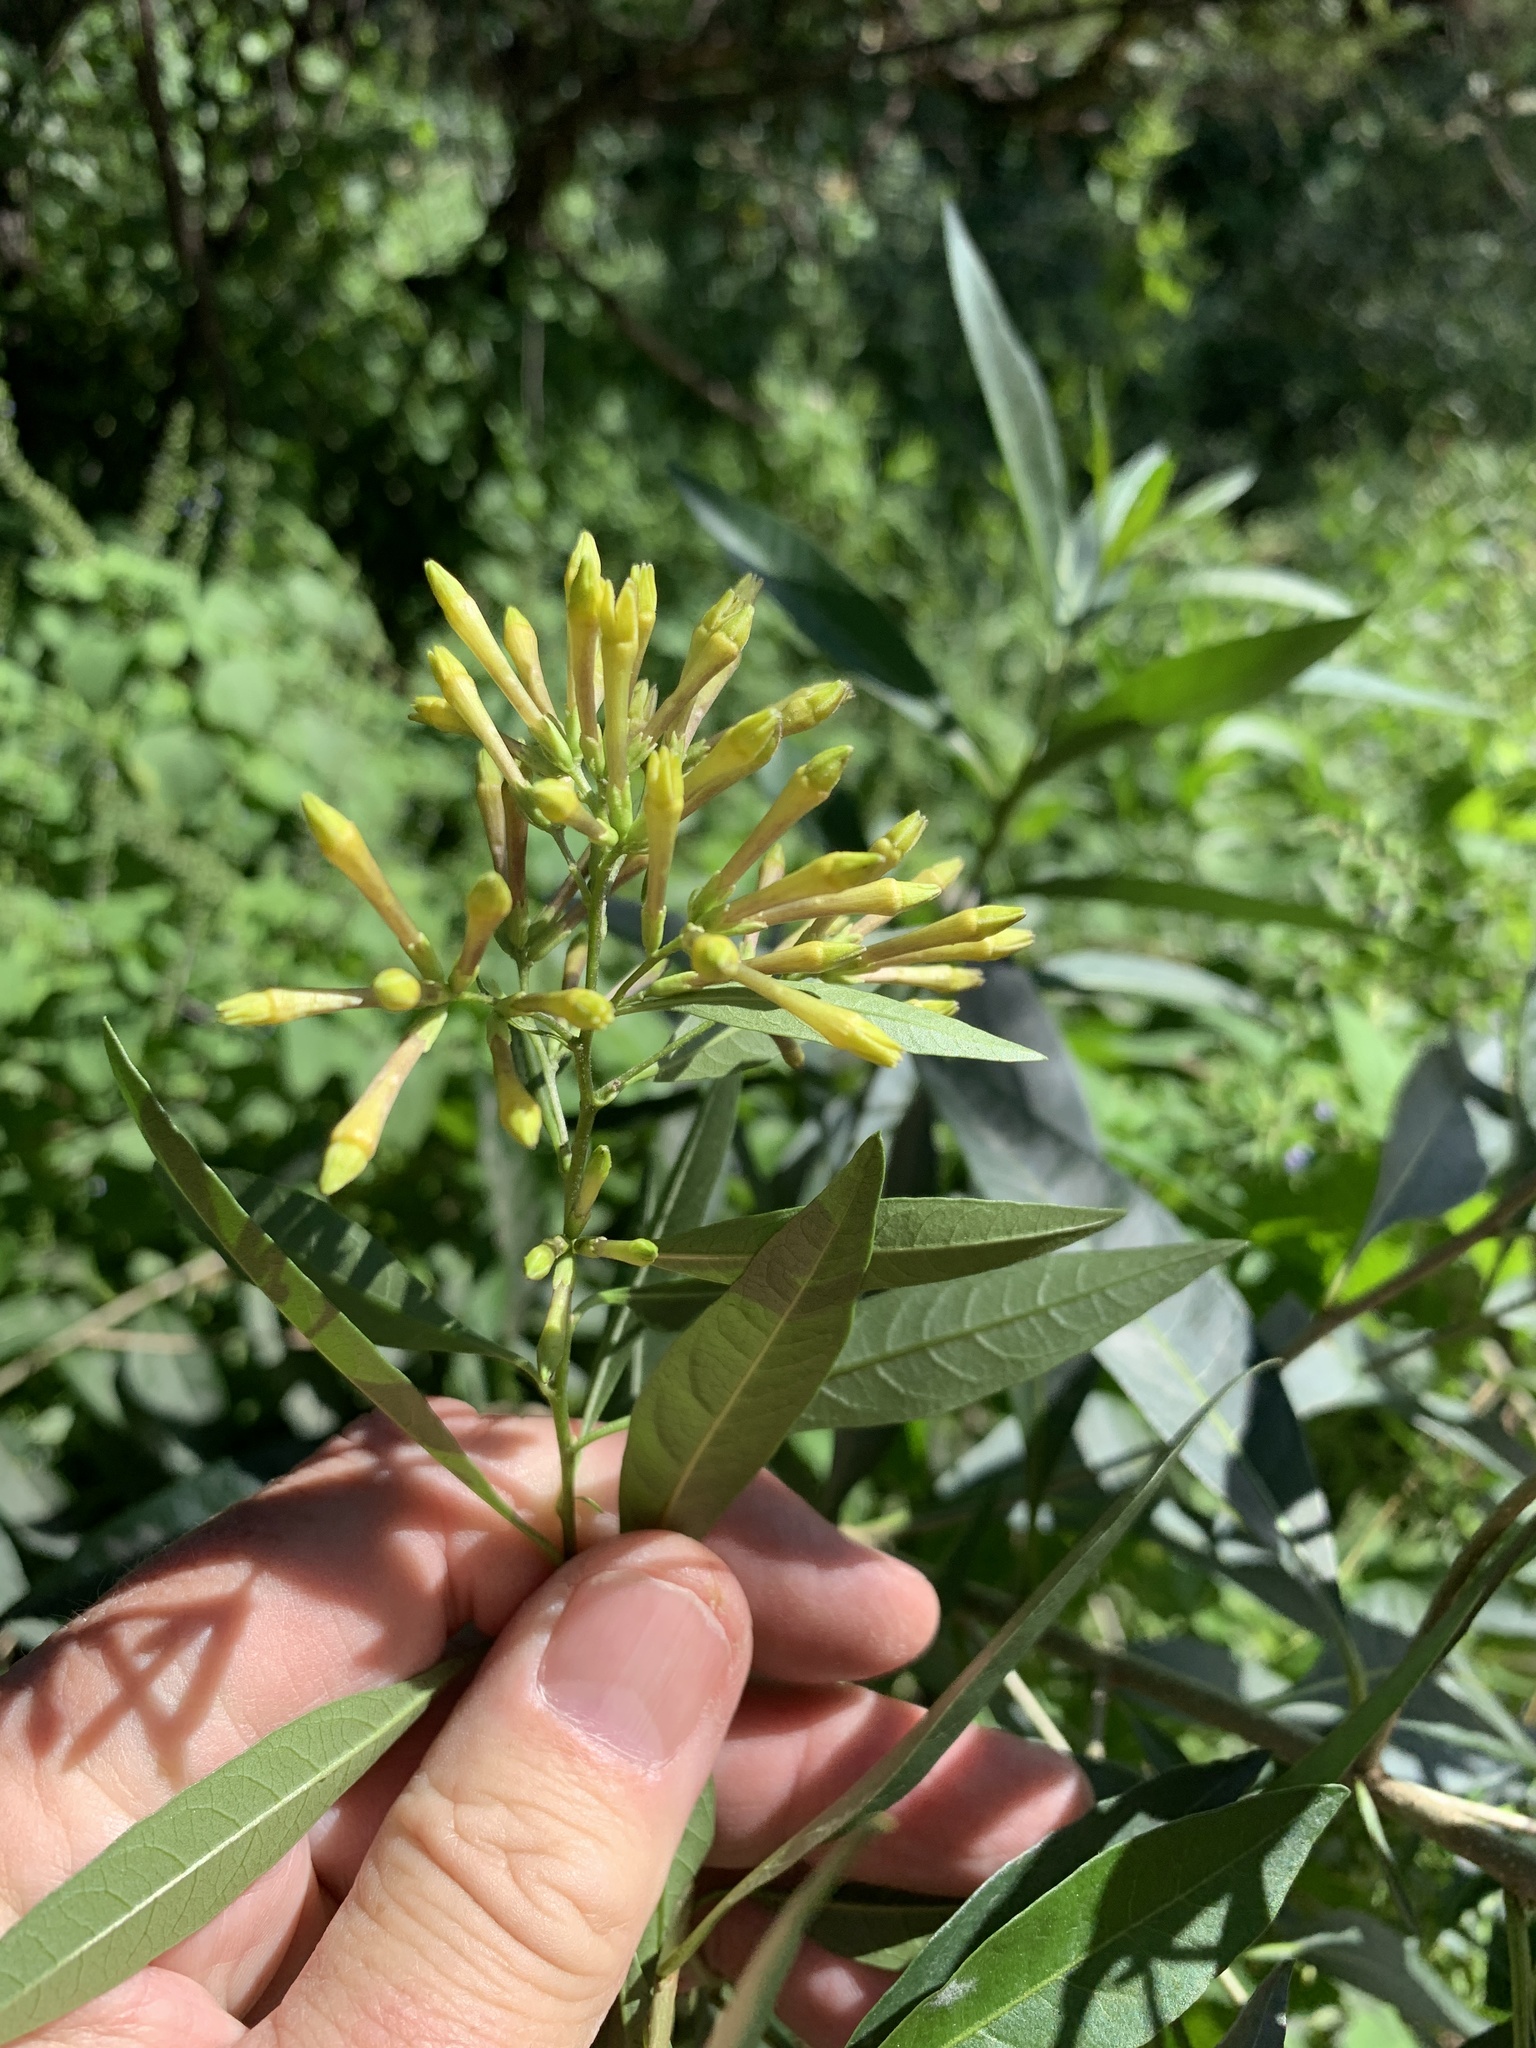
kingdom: Plantae
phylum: Tracheophyta
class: Magnoliopsida
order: Solanales
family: Solanaceae
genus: Cestrum
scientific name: Cestrum parqui
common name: Chilean cestrum
